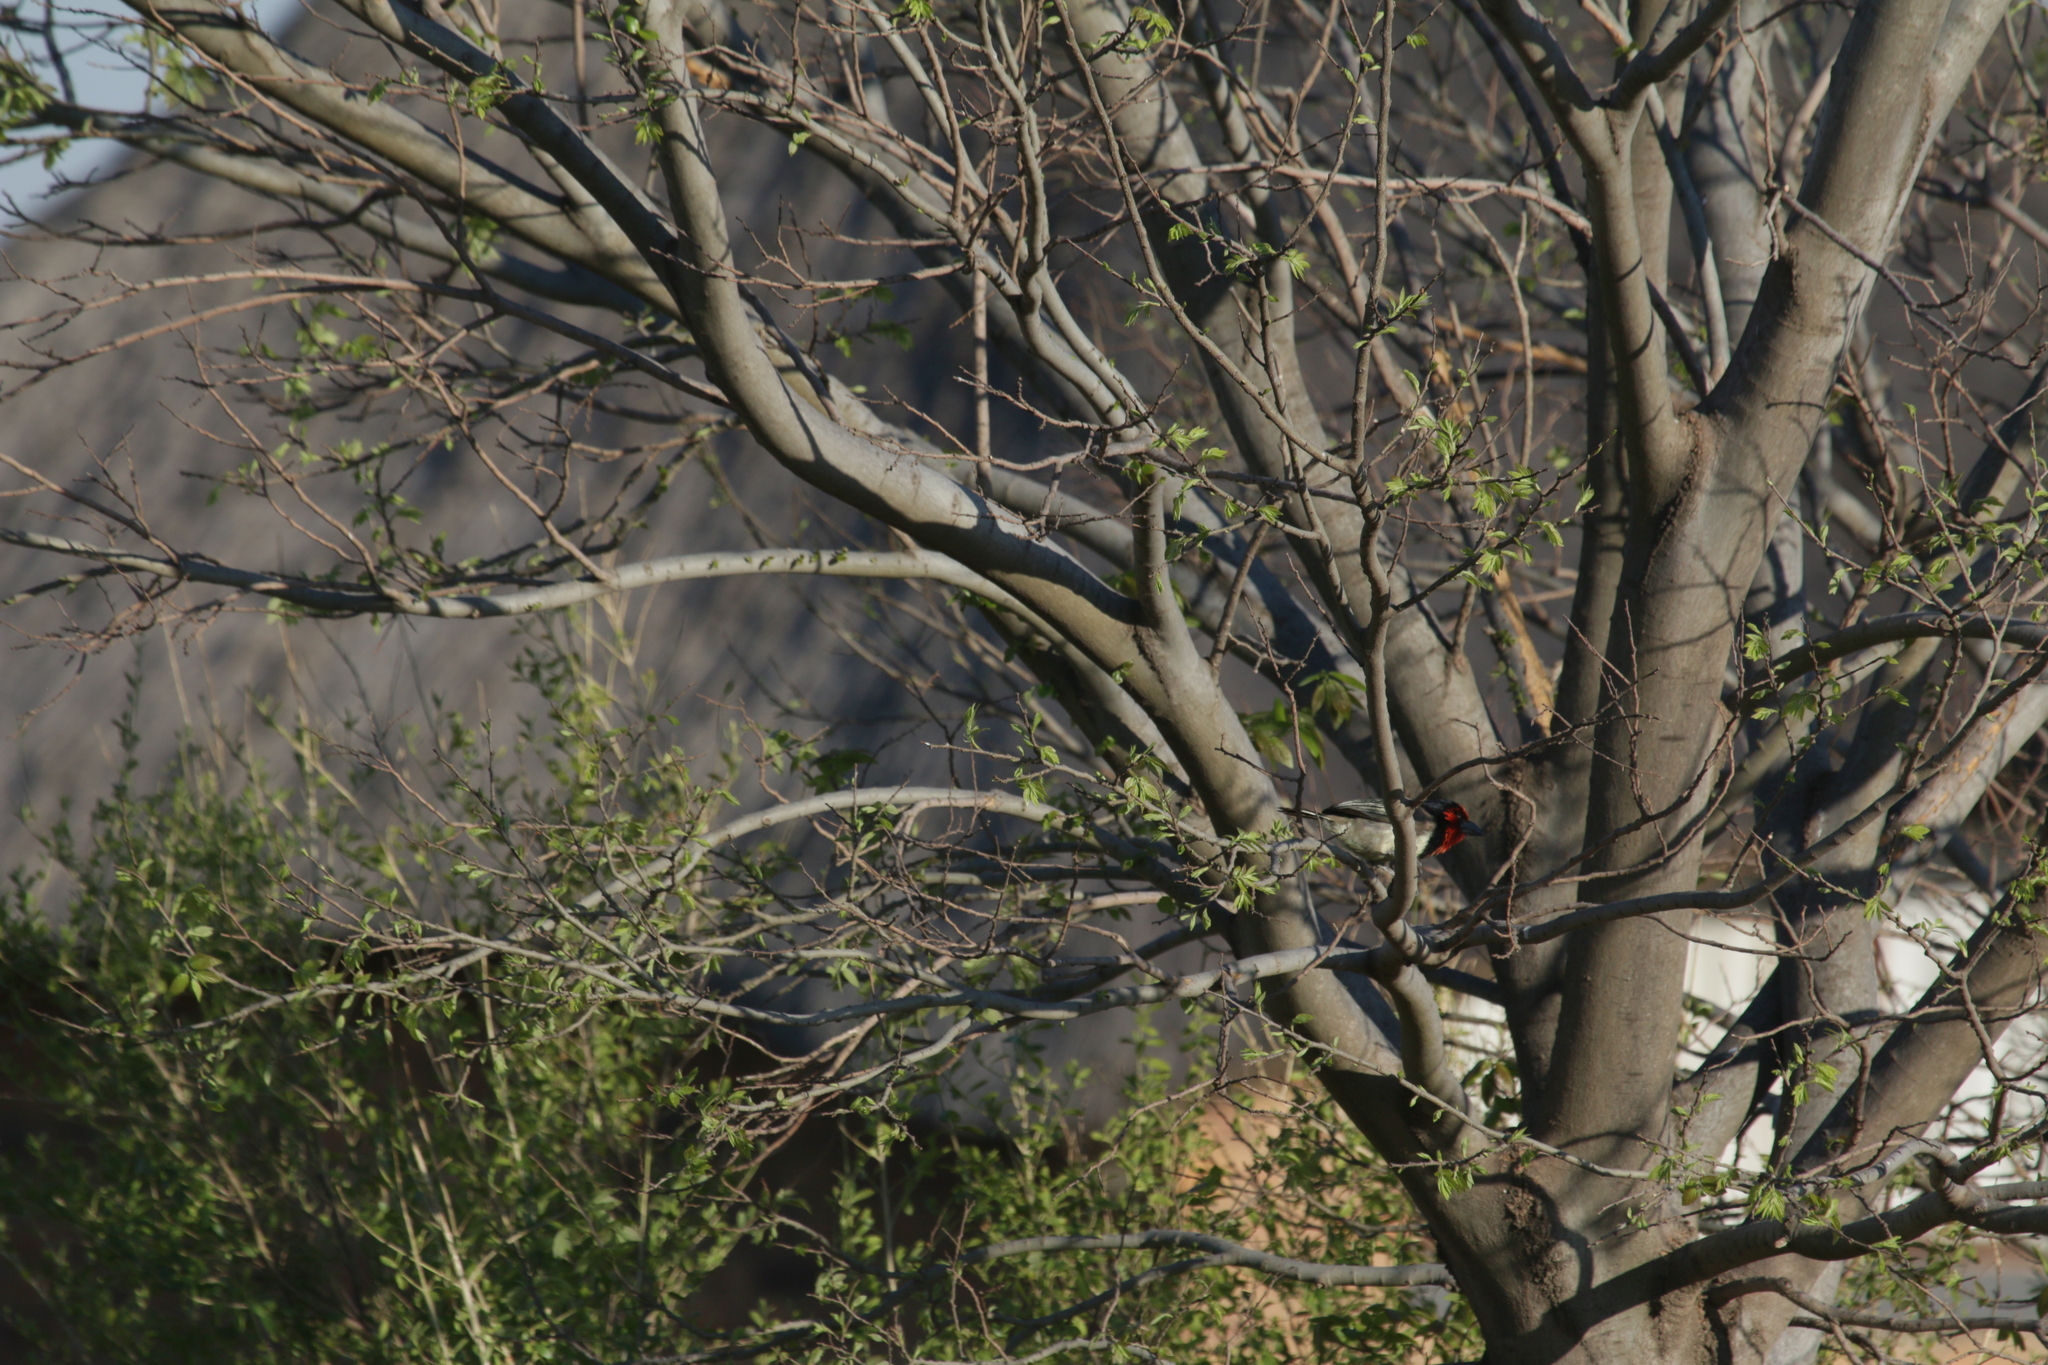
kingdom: Animalia
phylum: Chordata
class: Aves
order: Piciformes
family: Lybiidae
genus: Lybius
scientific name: Lybius torquatus
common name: Black-collared barbet
